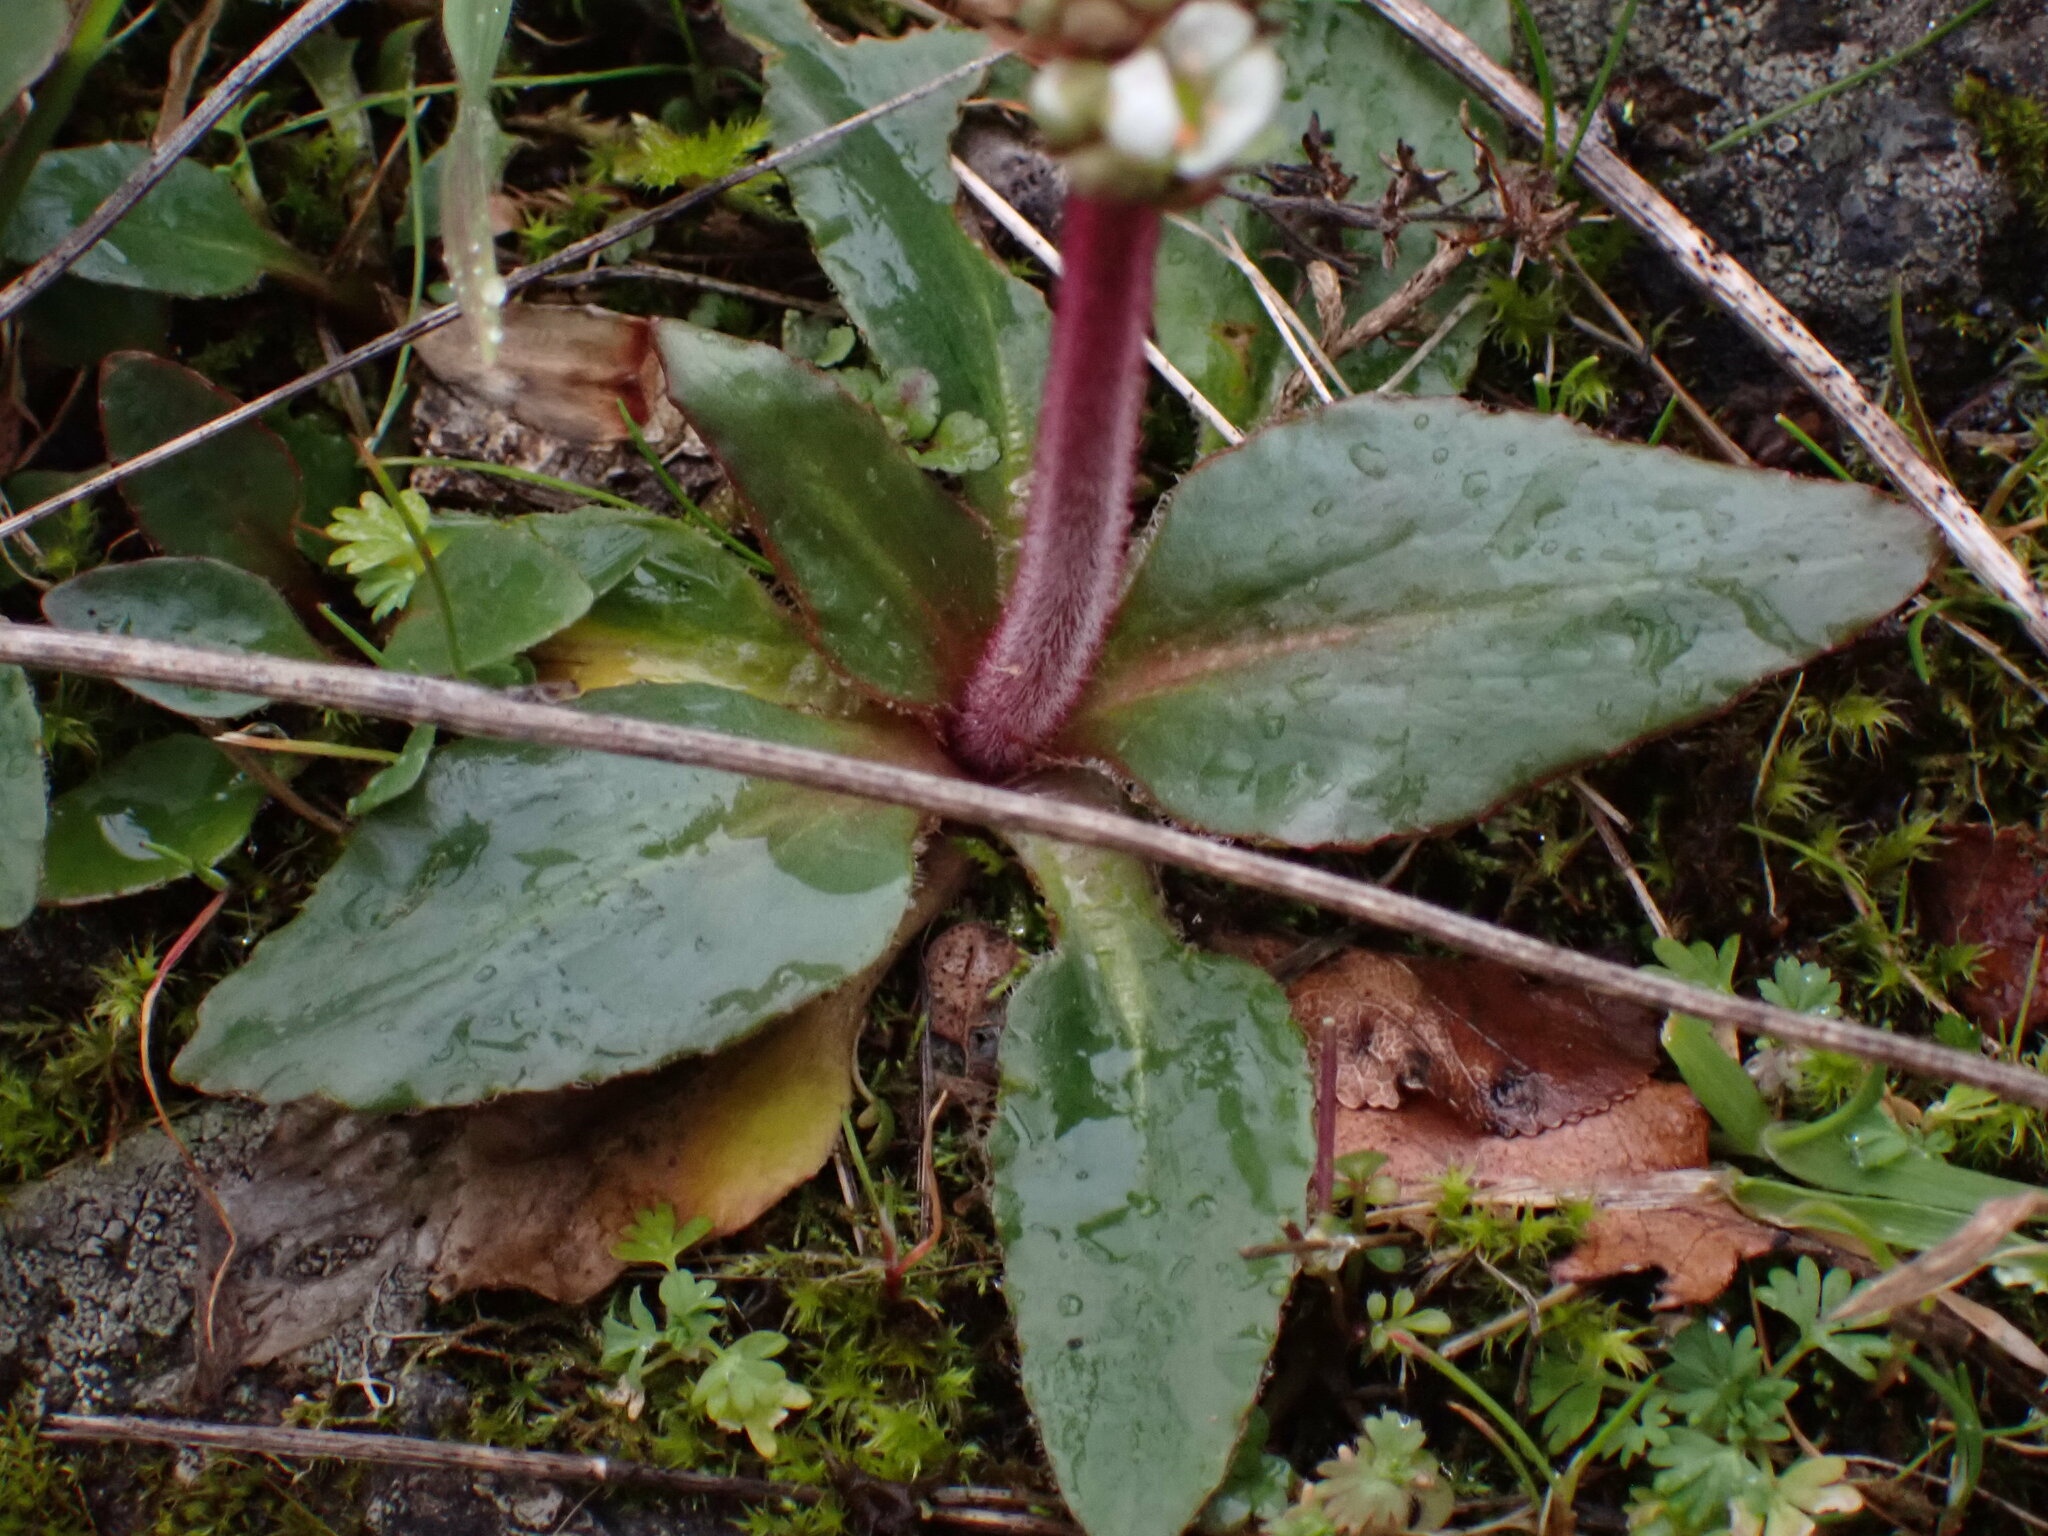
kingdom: Plantae
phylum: Tracheophyta
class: Magnoliopsida
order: Saxifragales
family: Saxifragaceae
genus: Micranthes
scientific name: Micranthes integrifolia
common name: Wholeleaf saxifrage
